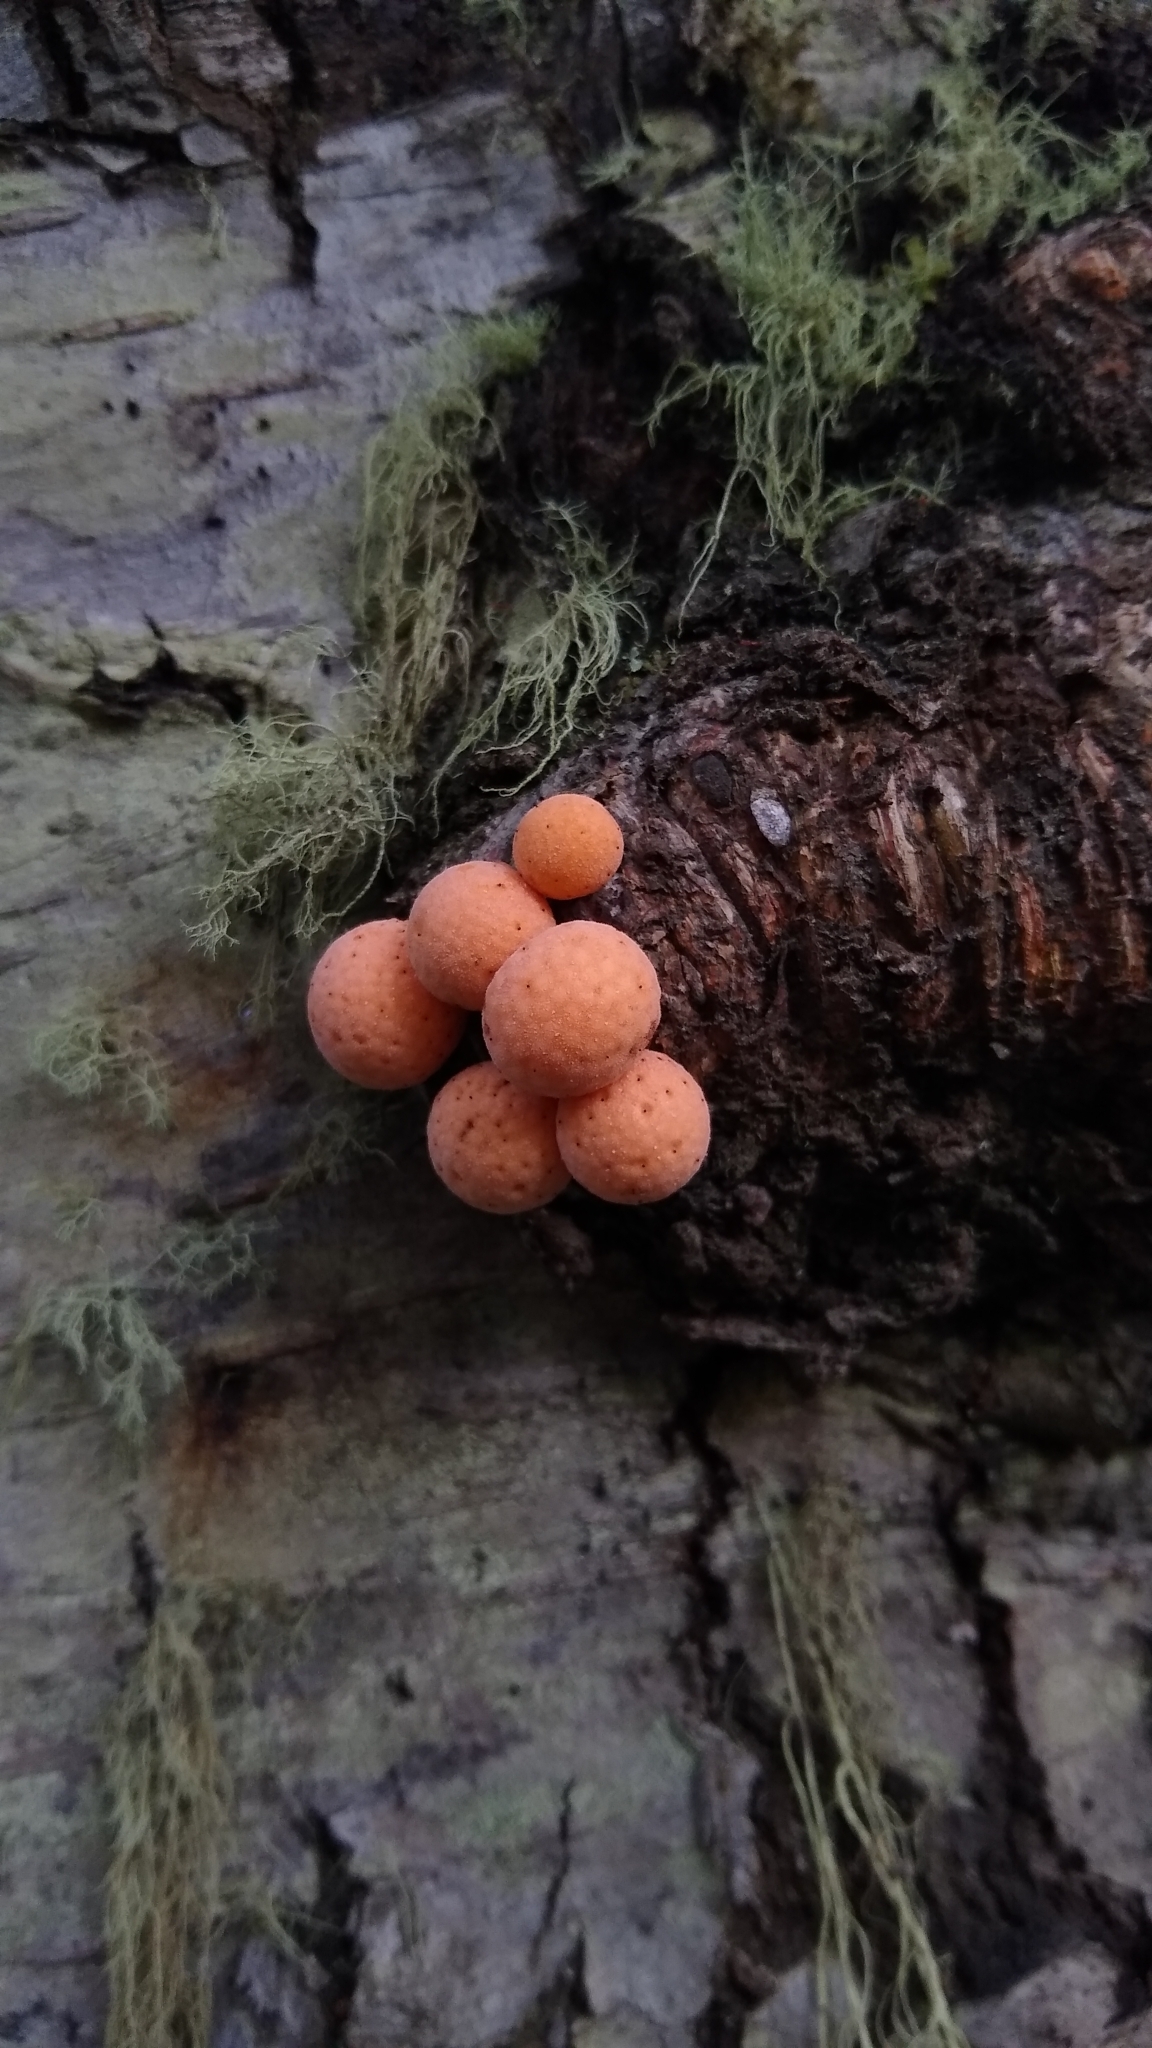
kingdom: Fungi
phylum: Ascomycota
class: Leotiomycetes
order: Cyttariales
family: Cyttariaceae
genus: Cyttaria
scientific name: Cyttaria darwinii
